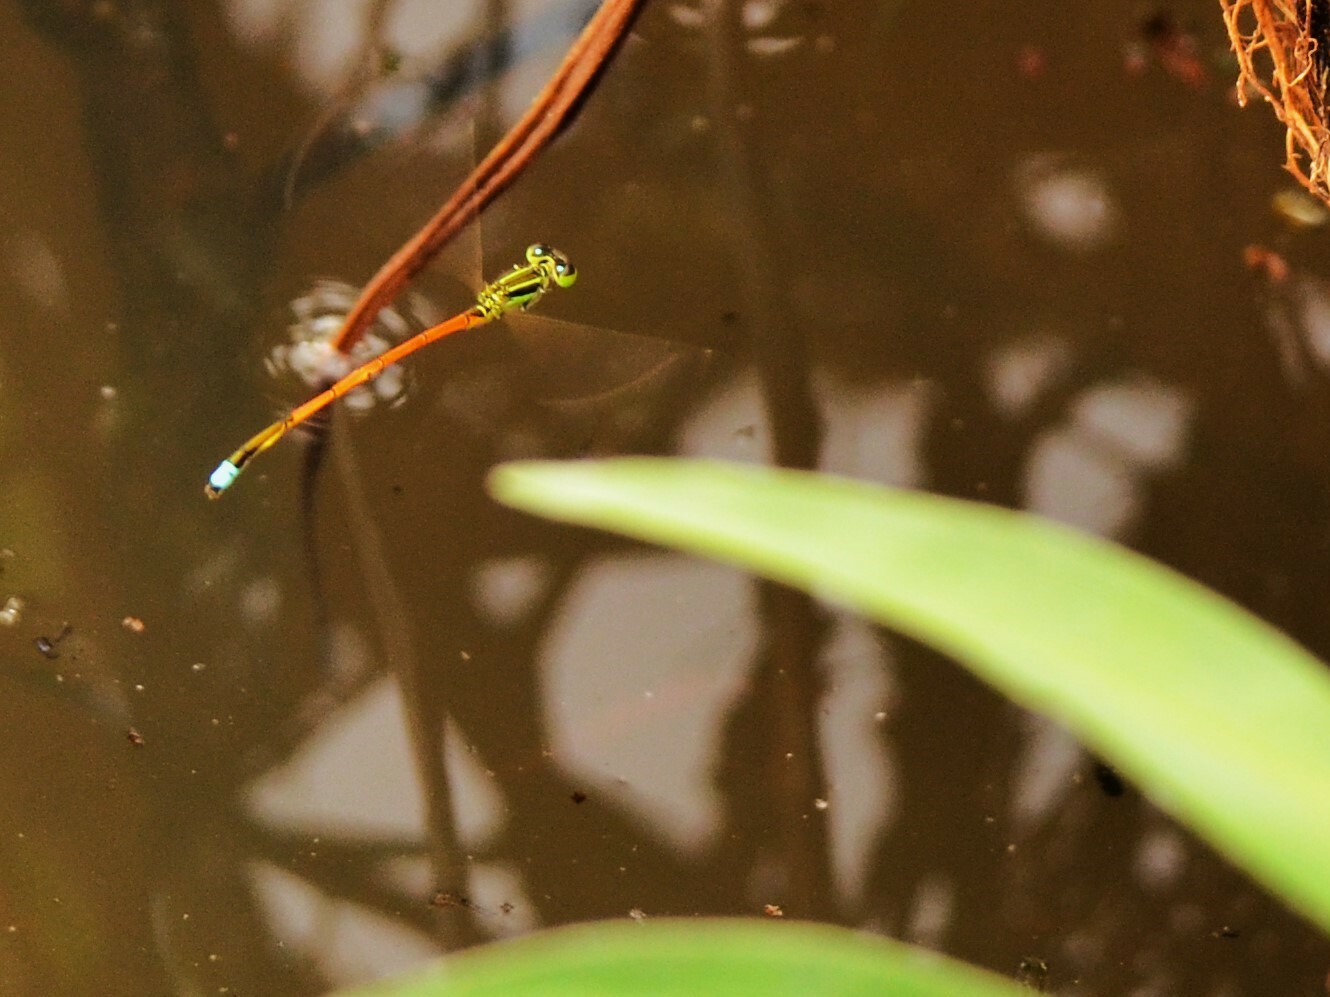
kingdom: Animalia
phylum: Arthropoda
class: Insecta
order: Odonata
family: Coenagrionidae
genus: Ischnura
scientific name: Ischnura aurora
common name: Gossamer damselfly
